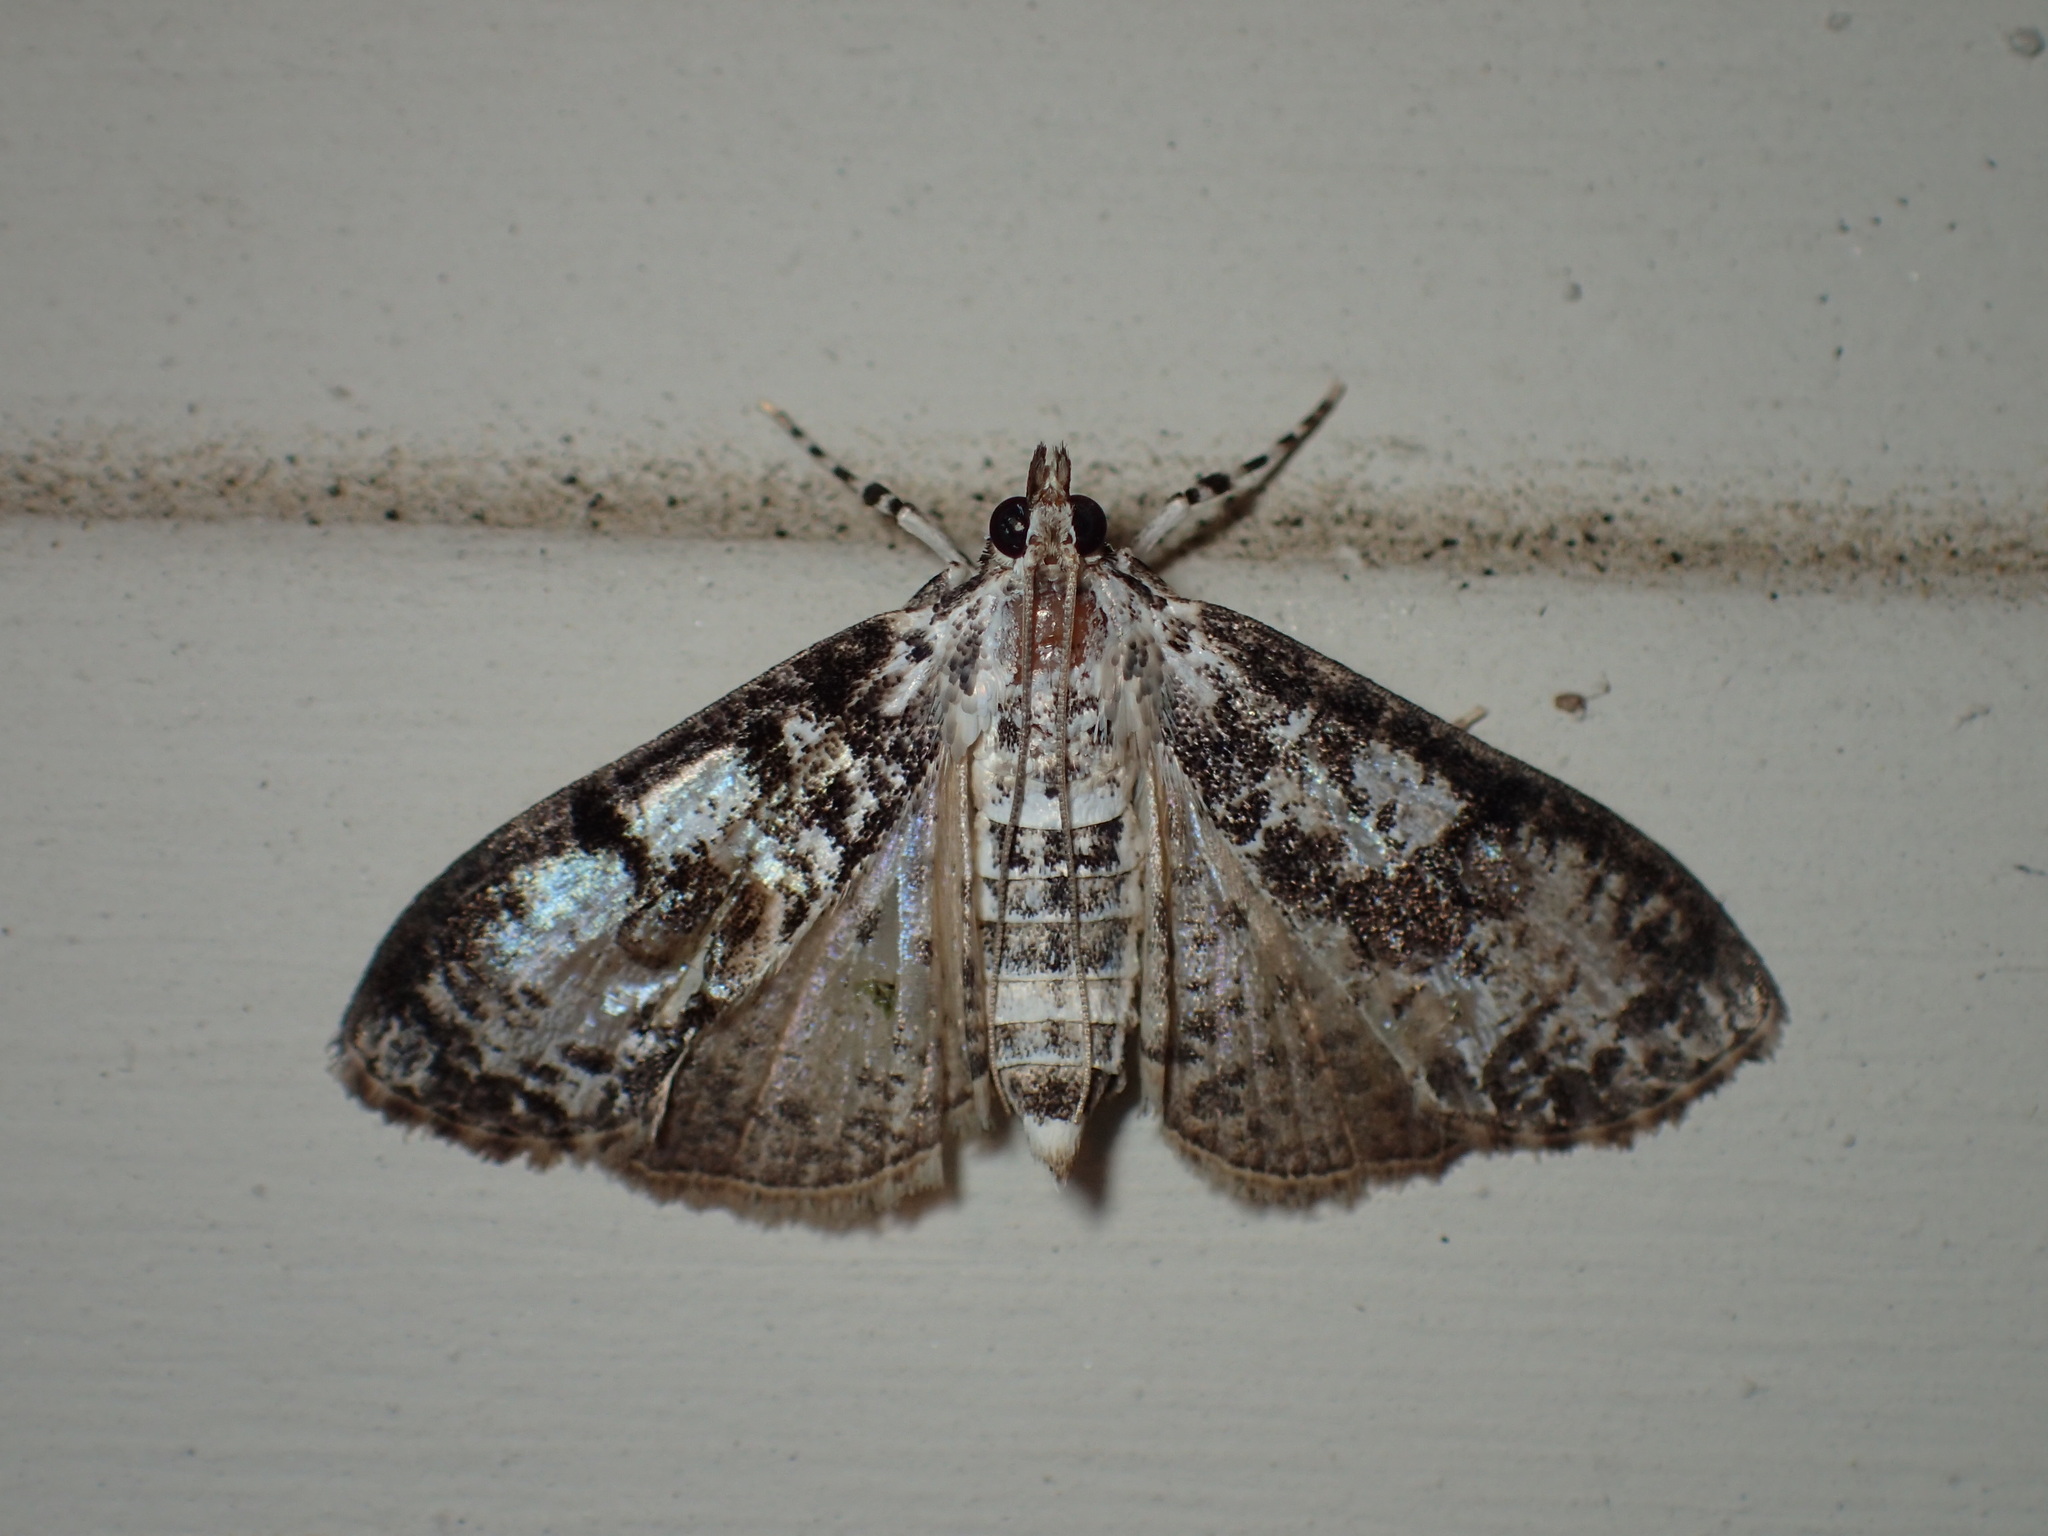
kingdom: Animalia
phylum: Arthropoda
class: Insecta
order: Lepidoptera
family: Crambidae
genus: Palpita
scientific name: Palpita magniferalis
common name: Splendid palpita moth
